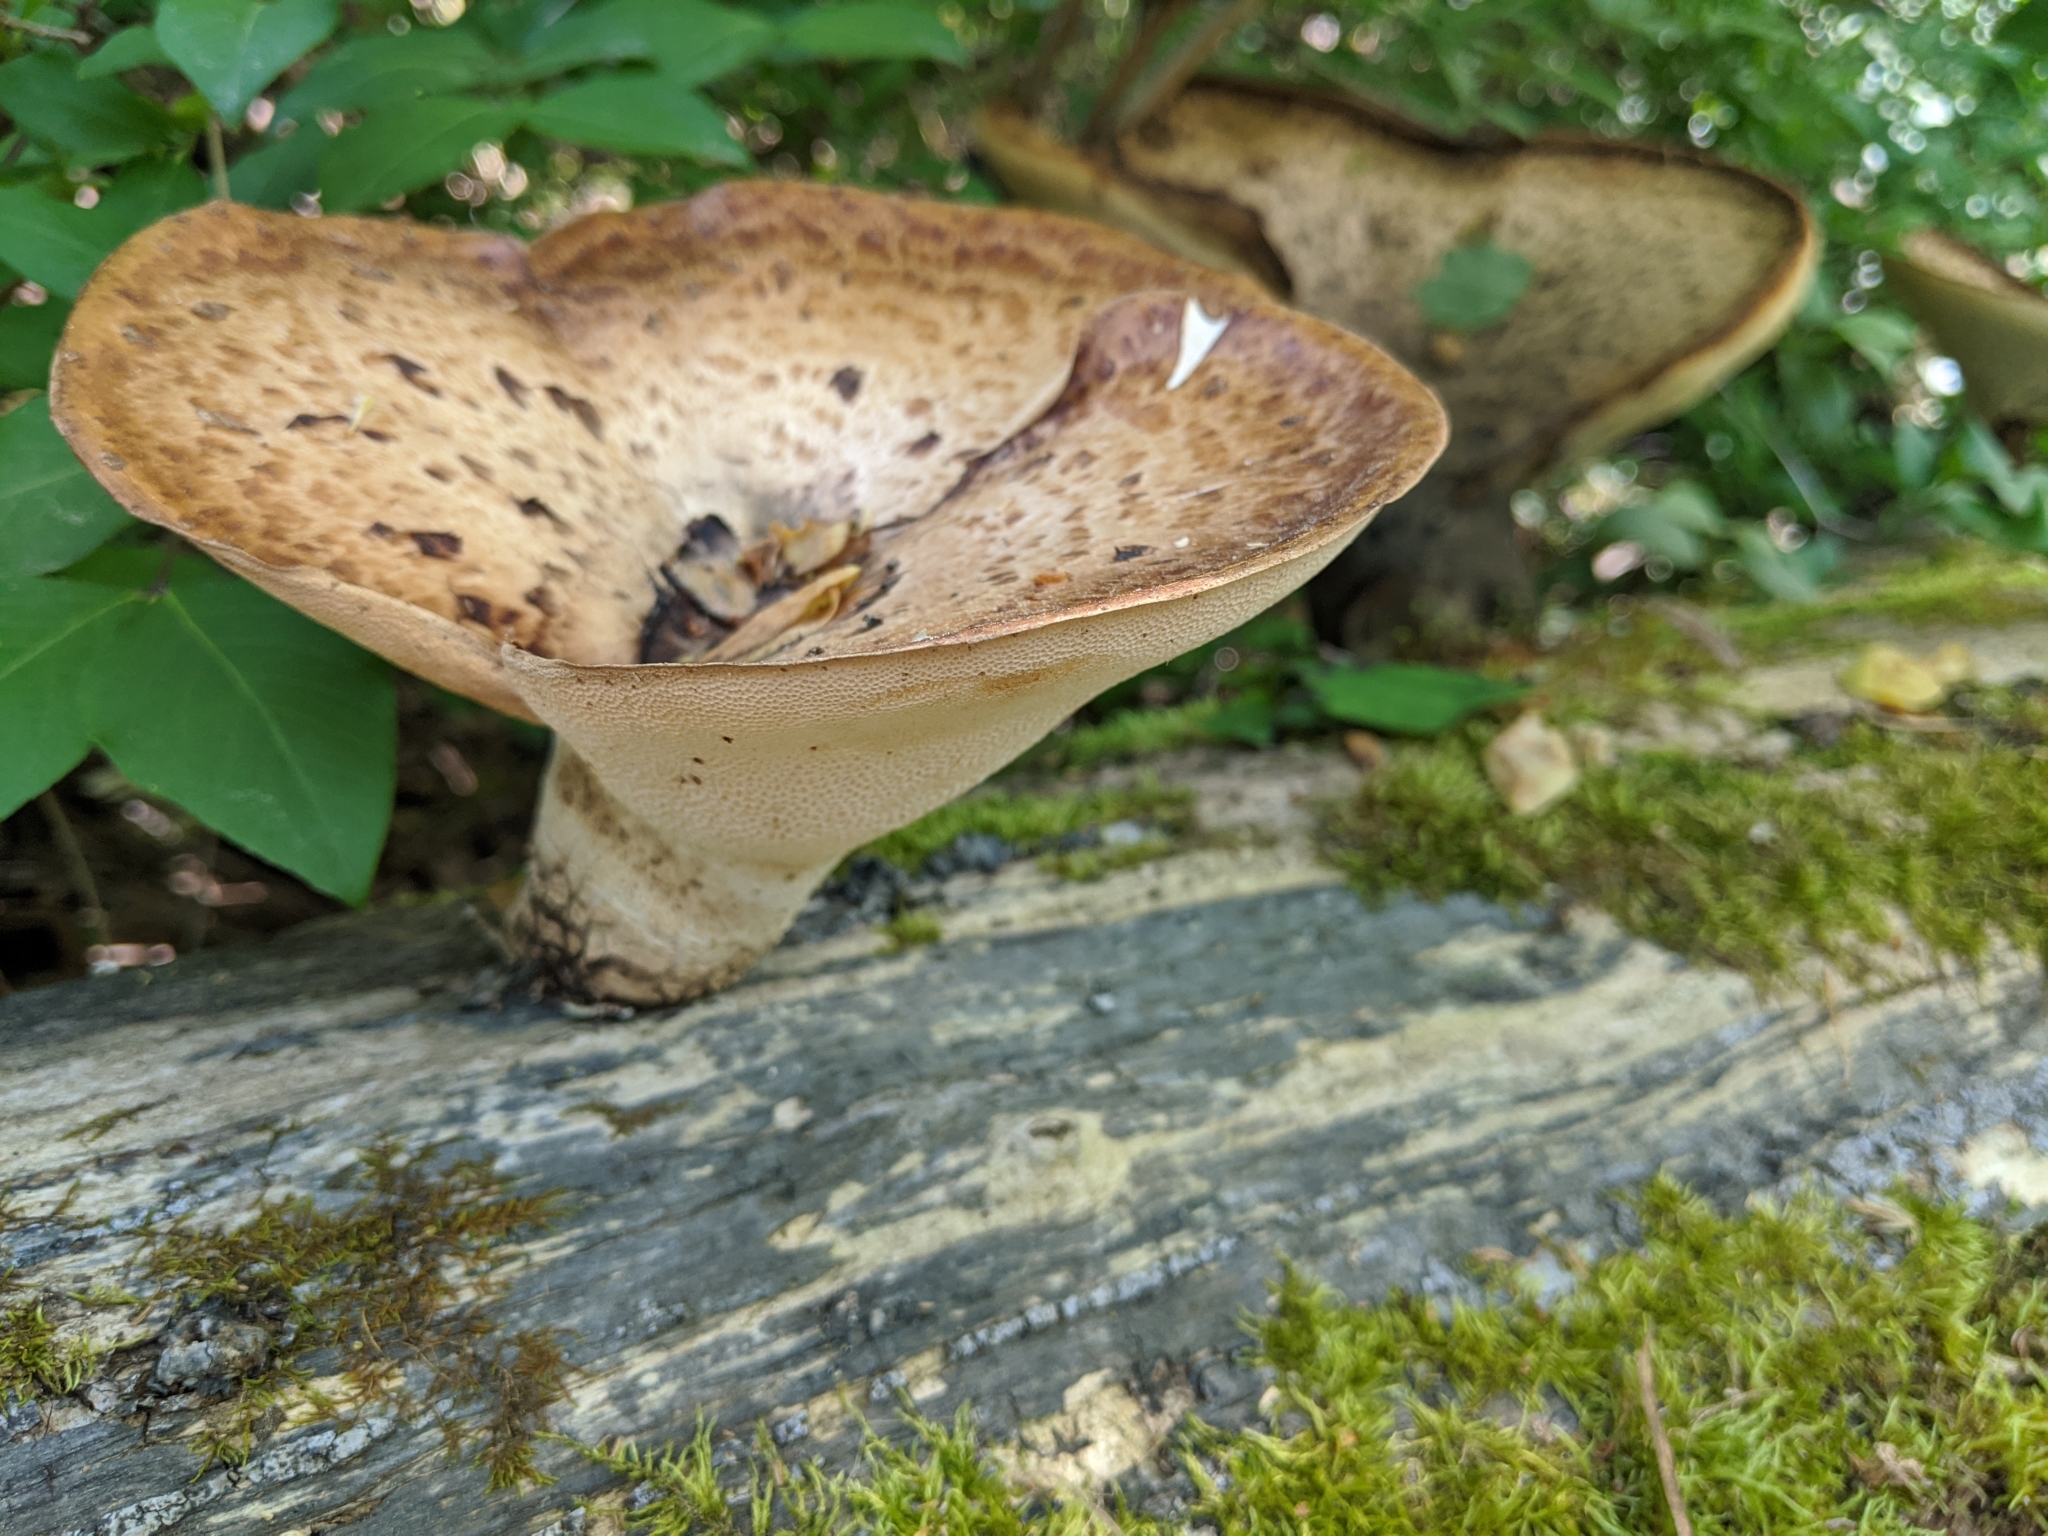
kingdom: Fungi
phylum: Basidiomycota
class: Agaricomycetes
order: Polyporales
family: Polyporaceae
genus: Cerioporus
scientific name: Cerioporus squamosus
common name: Dryad's saddle
